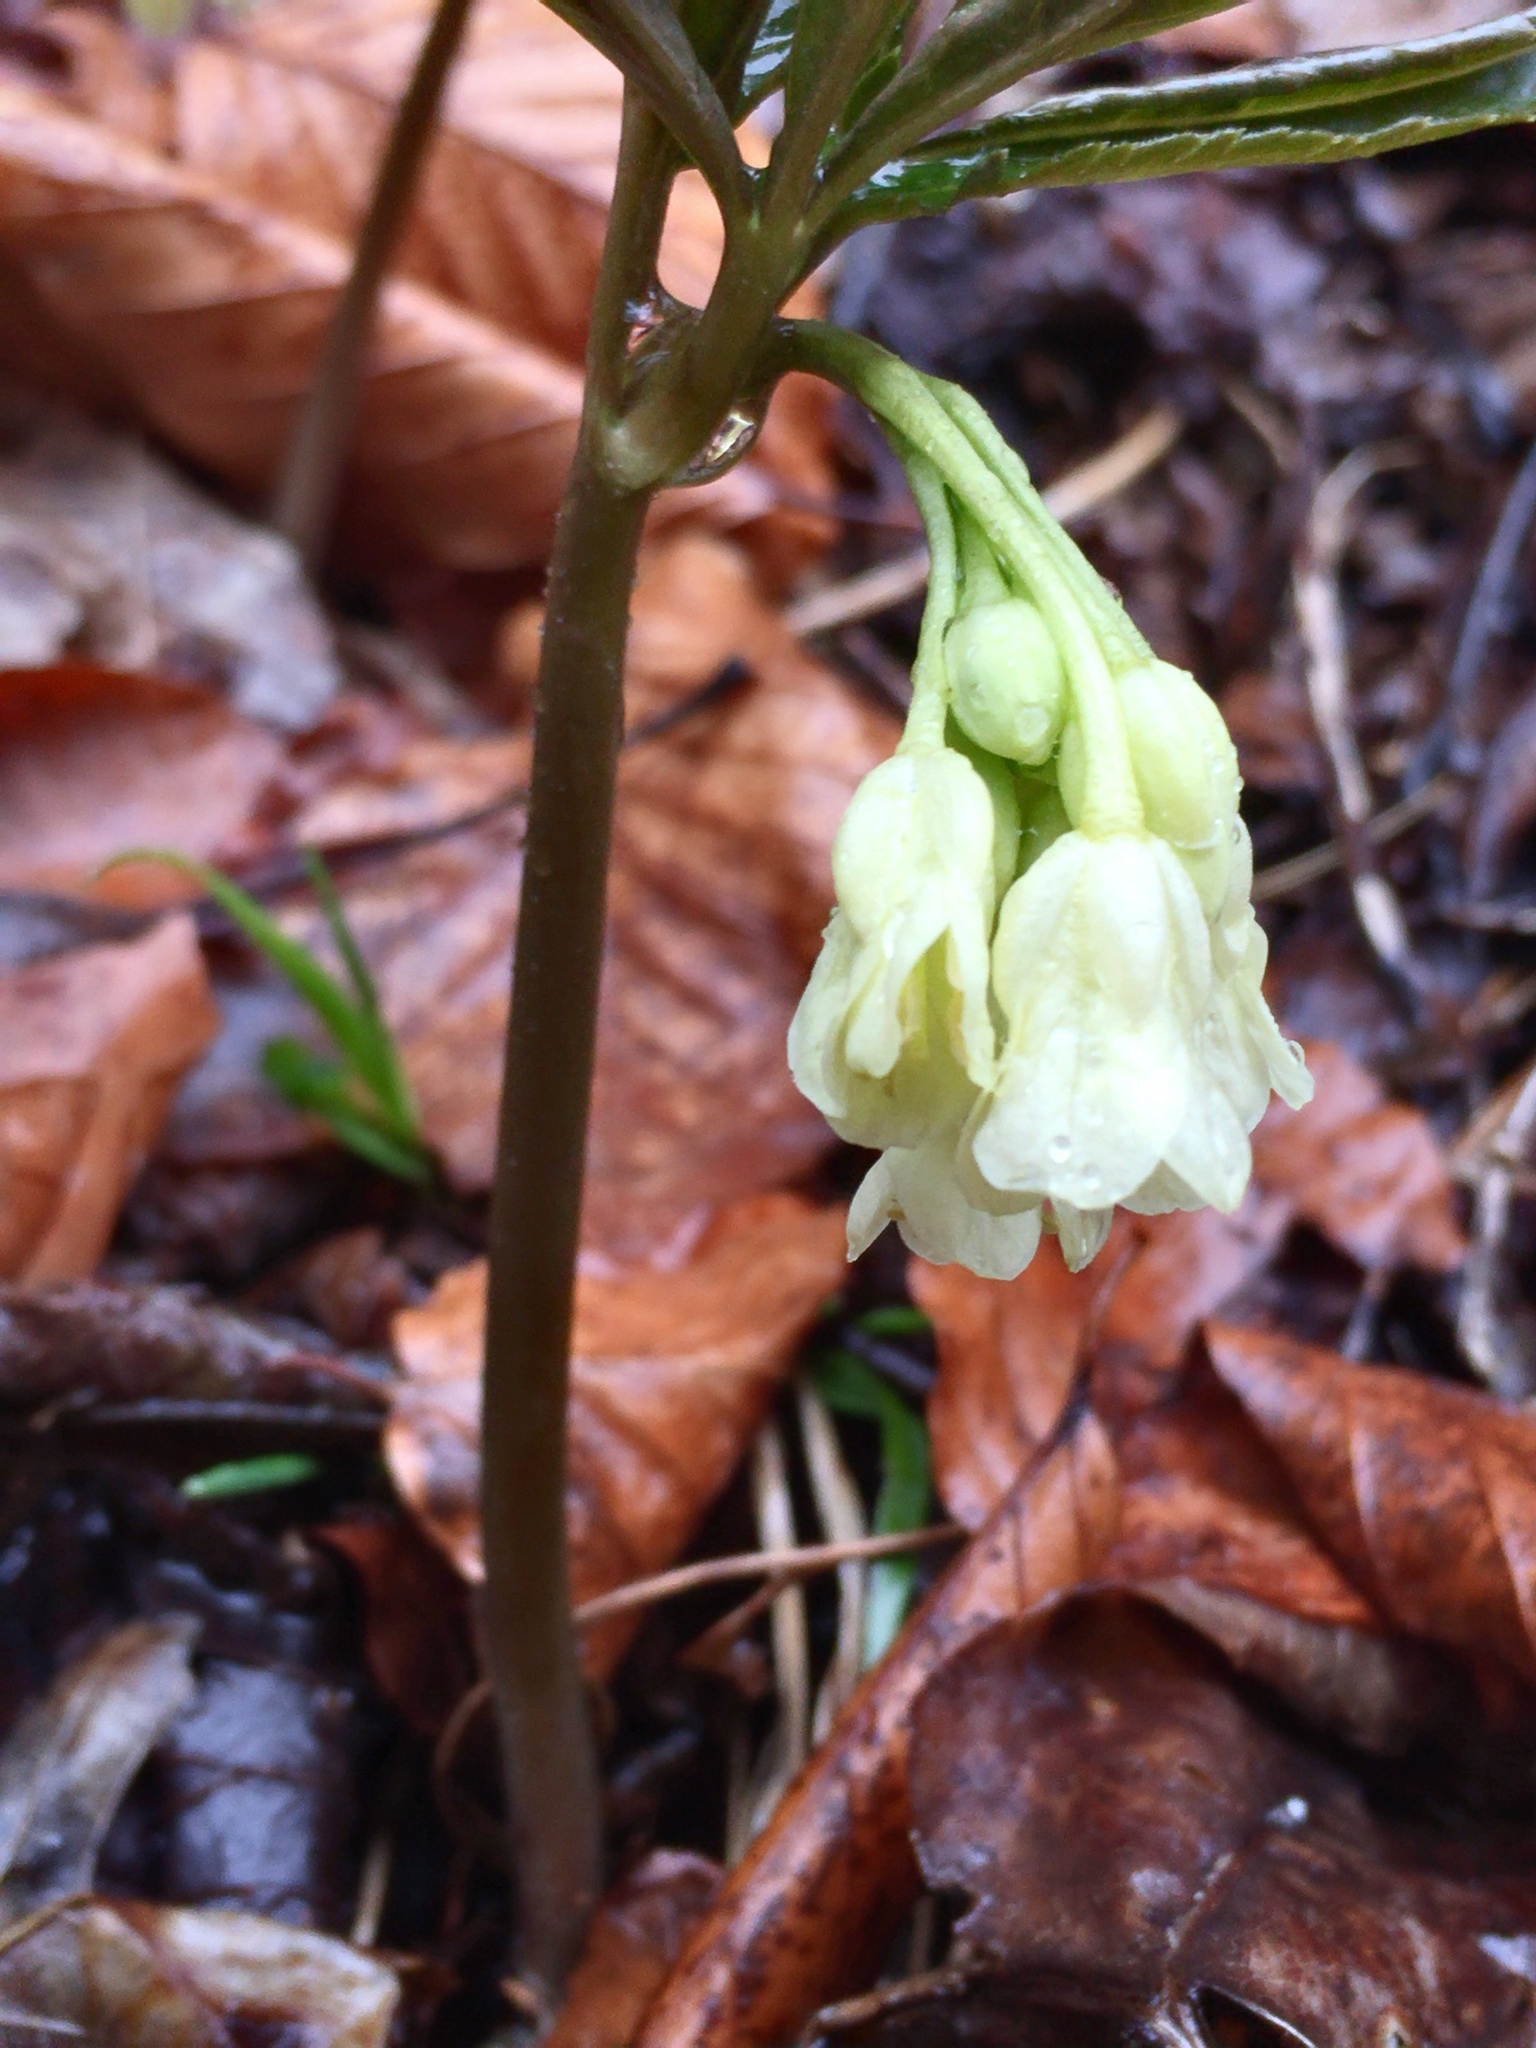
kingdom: Plantae
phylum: Tracheophyta
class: Magnoliopsida
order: Brassicales
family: Brassicaceae
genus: Cardamine
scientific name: Cardamine enneaphyllos
